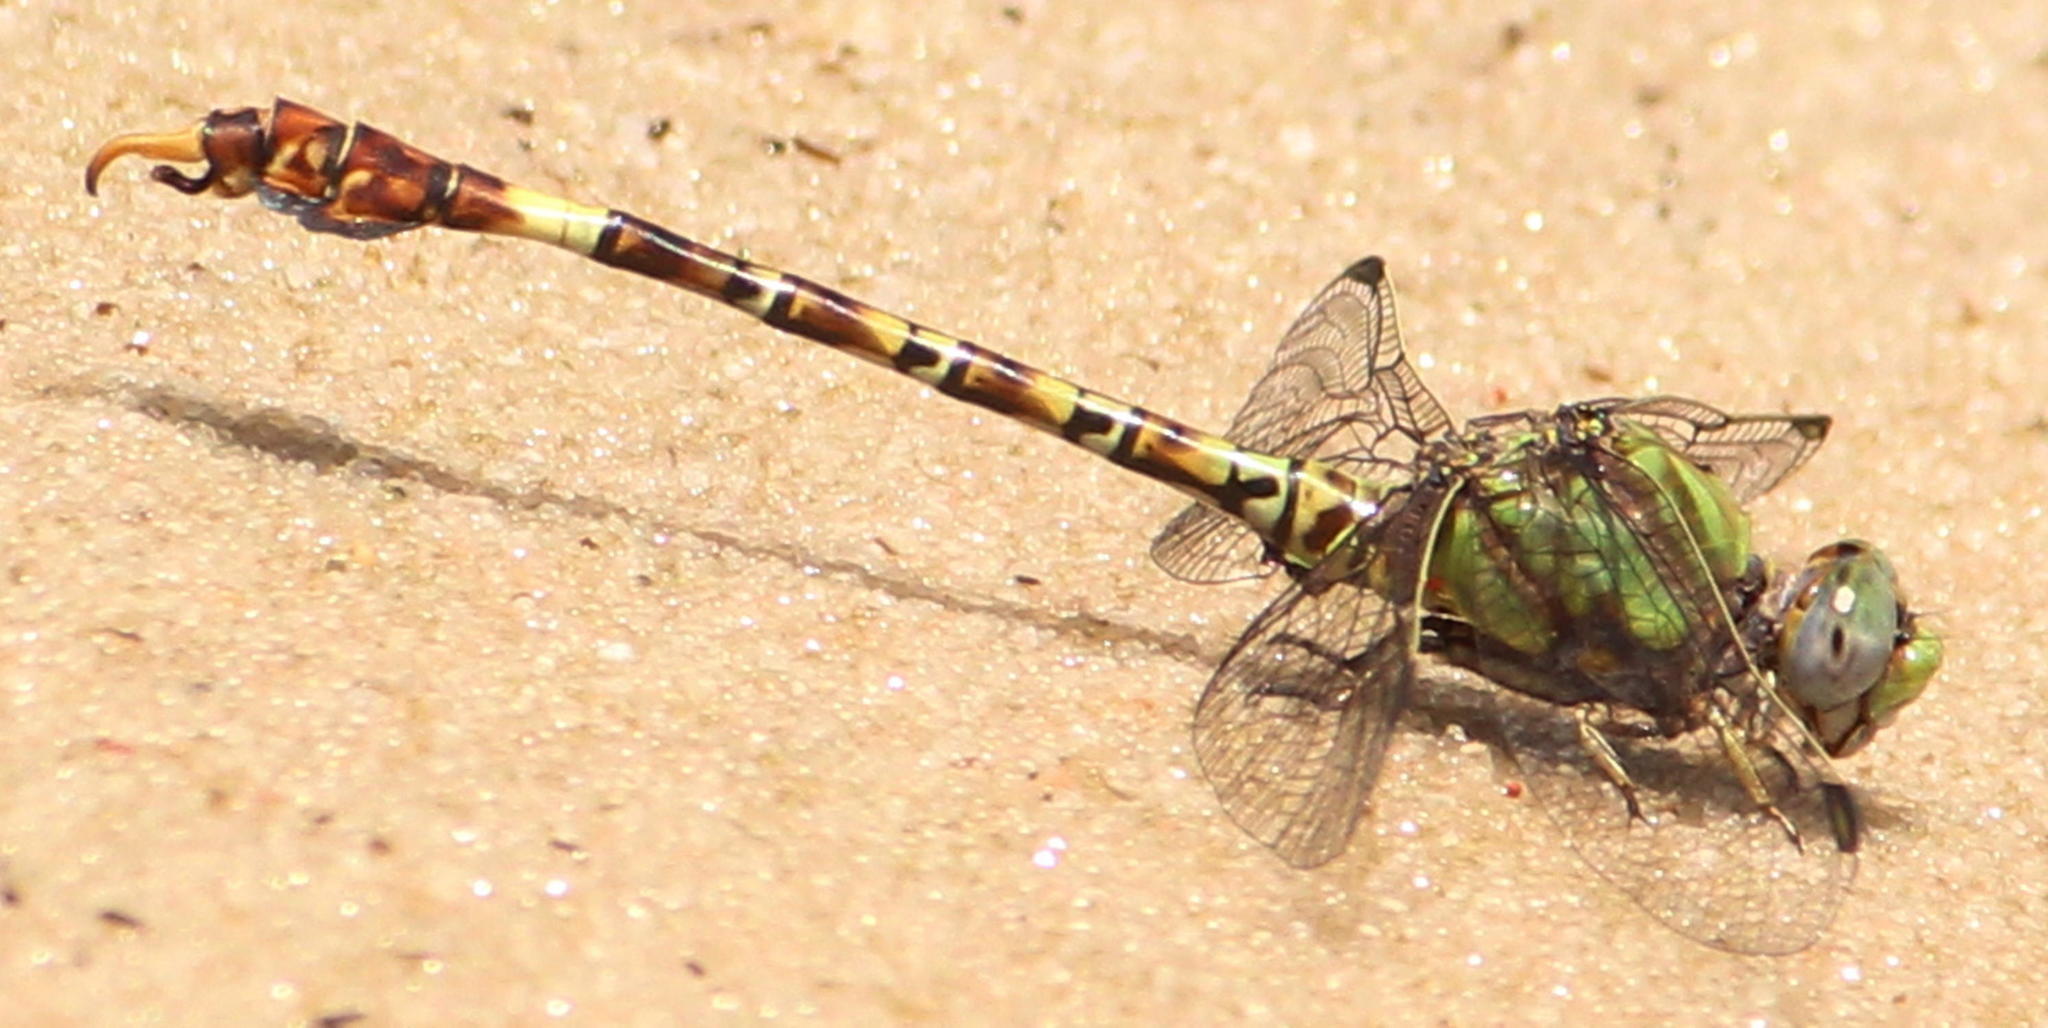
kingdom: Animalia
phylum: Arthropoda
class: Insecta
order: Odonata
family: Gomphidae
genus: Paragomphus
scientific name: Paragomphus genei
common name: Common hooktail
